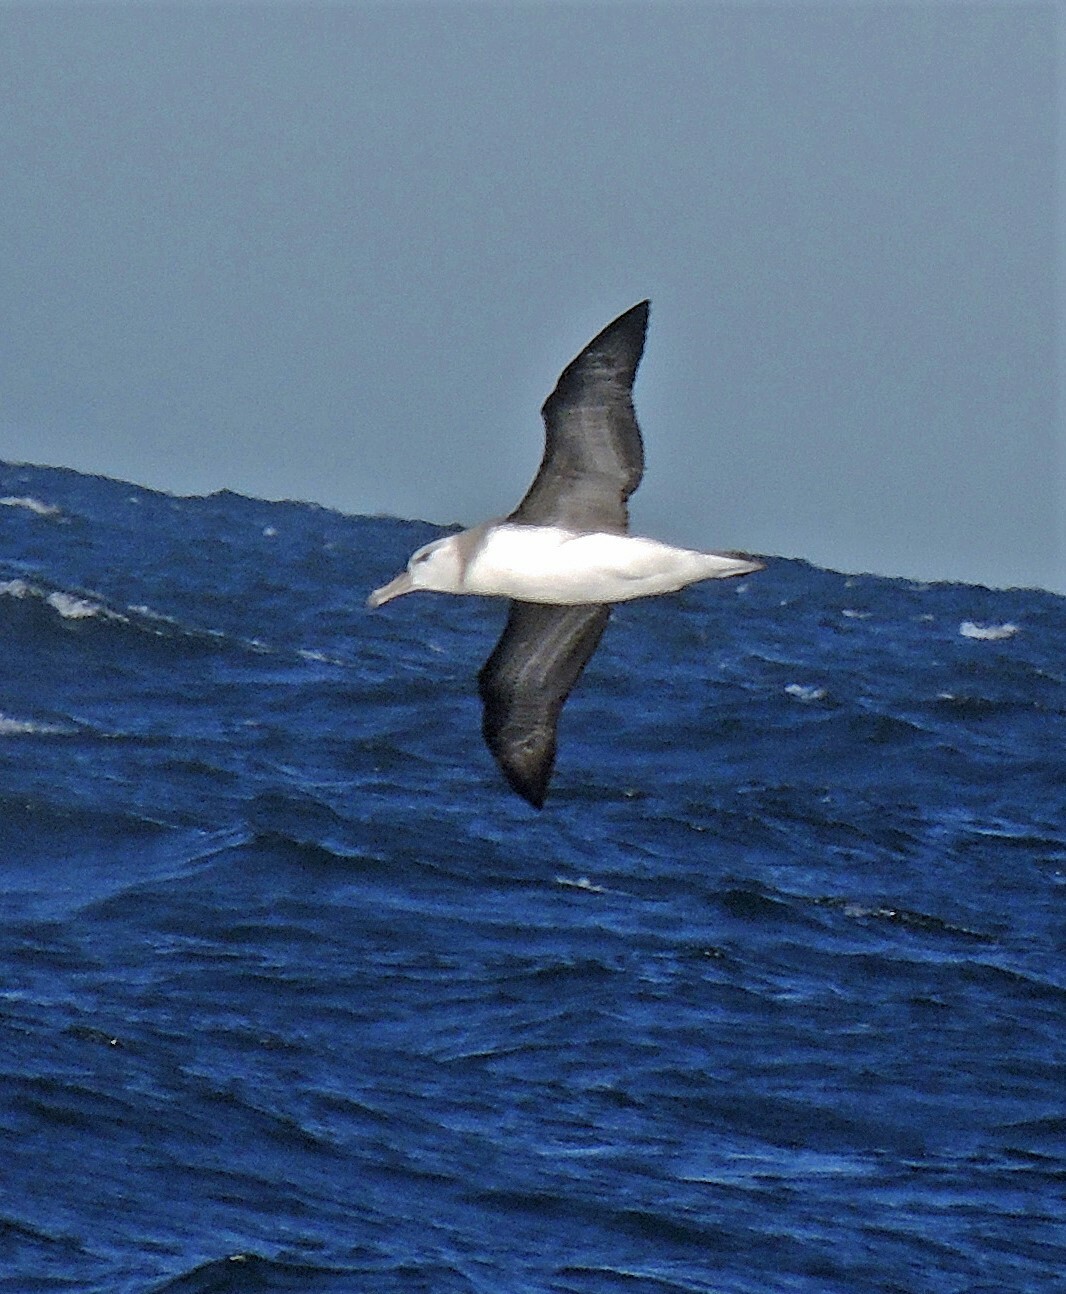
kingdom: Animalia
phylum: Chordata
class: Aves
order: Procellariiformes
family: Diomedeidae
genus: Thalassarche
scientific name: Thalassarche melanophris
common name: Black-browed albatross
